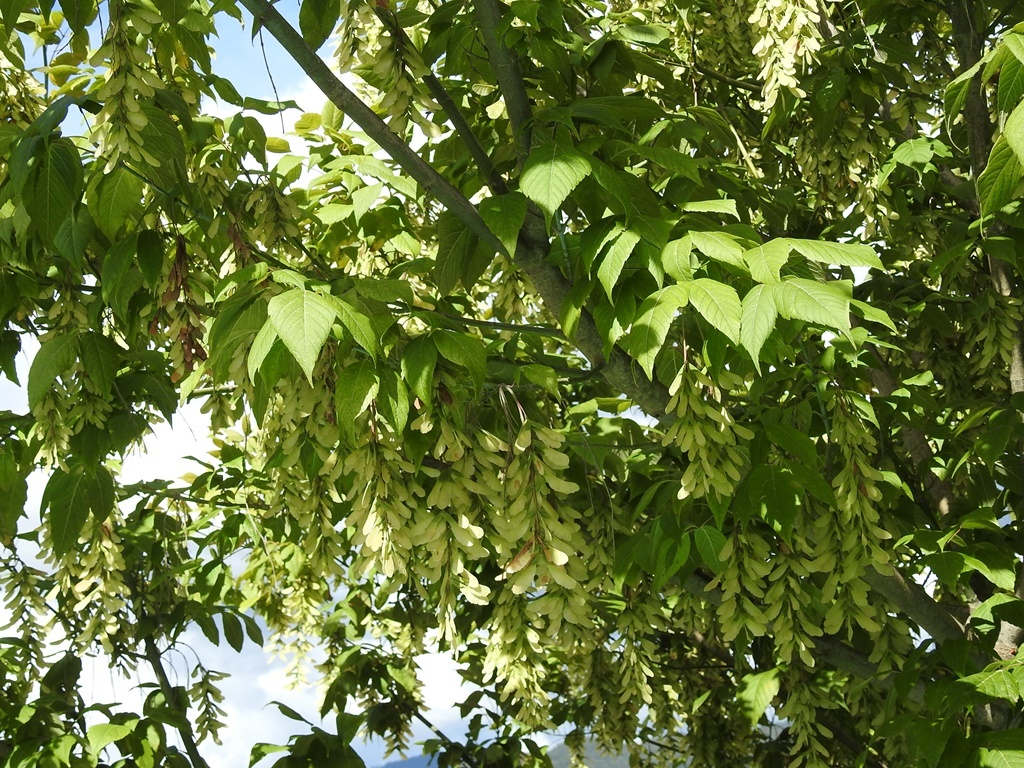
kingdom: Plantae
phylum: Tracheophyta
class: Magnoliopsida
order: Sapindales
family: Sapindaceae
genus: Acer
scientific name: Acer negundo
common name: Ashleaf maple
